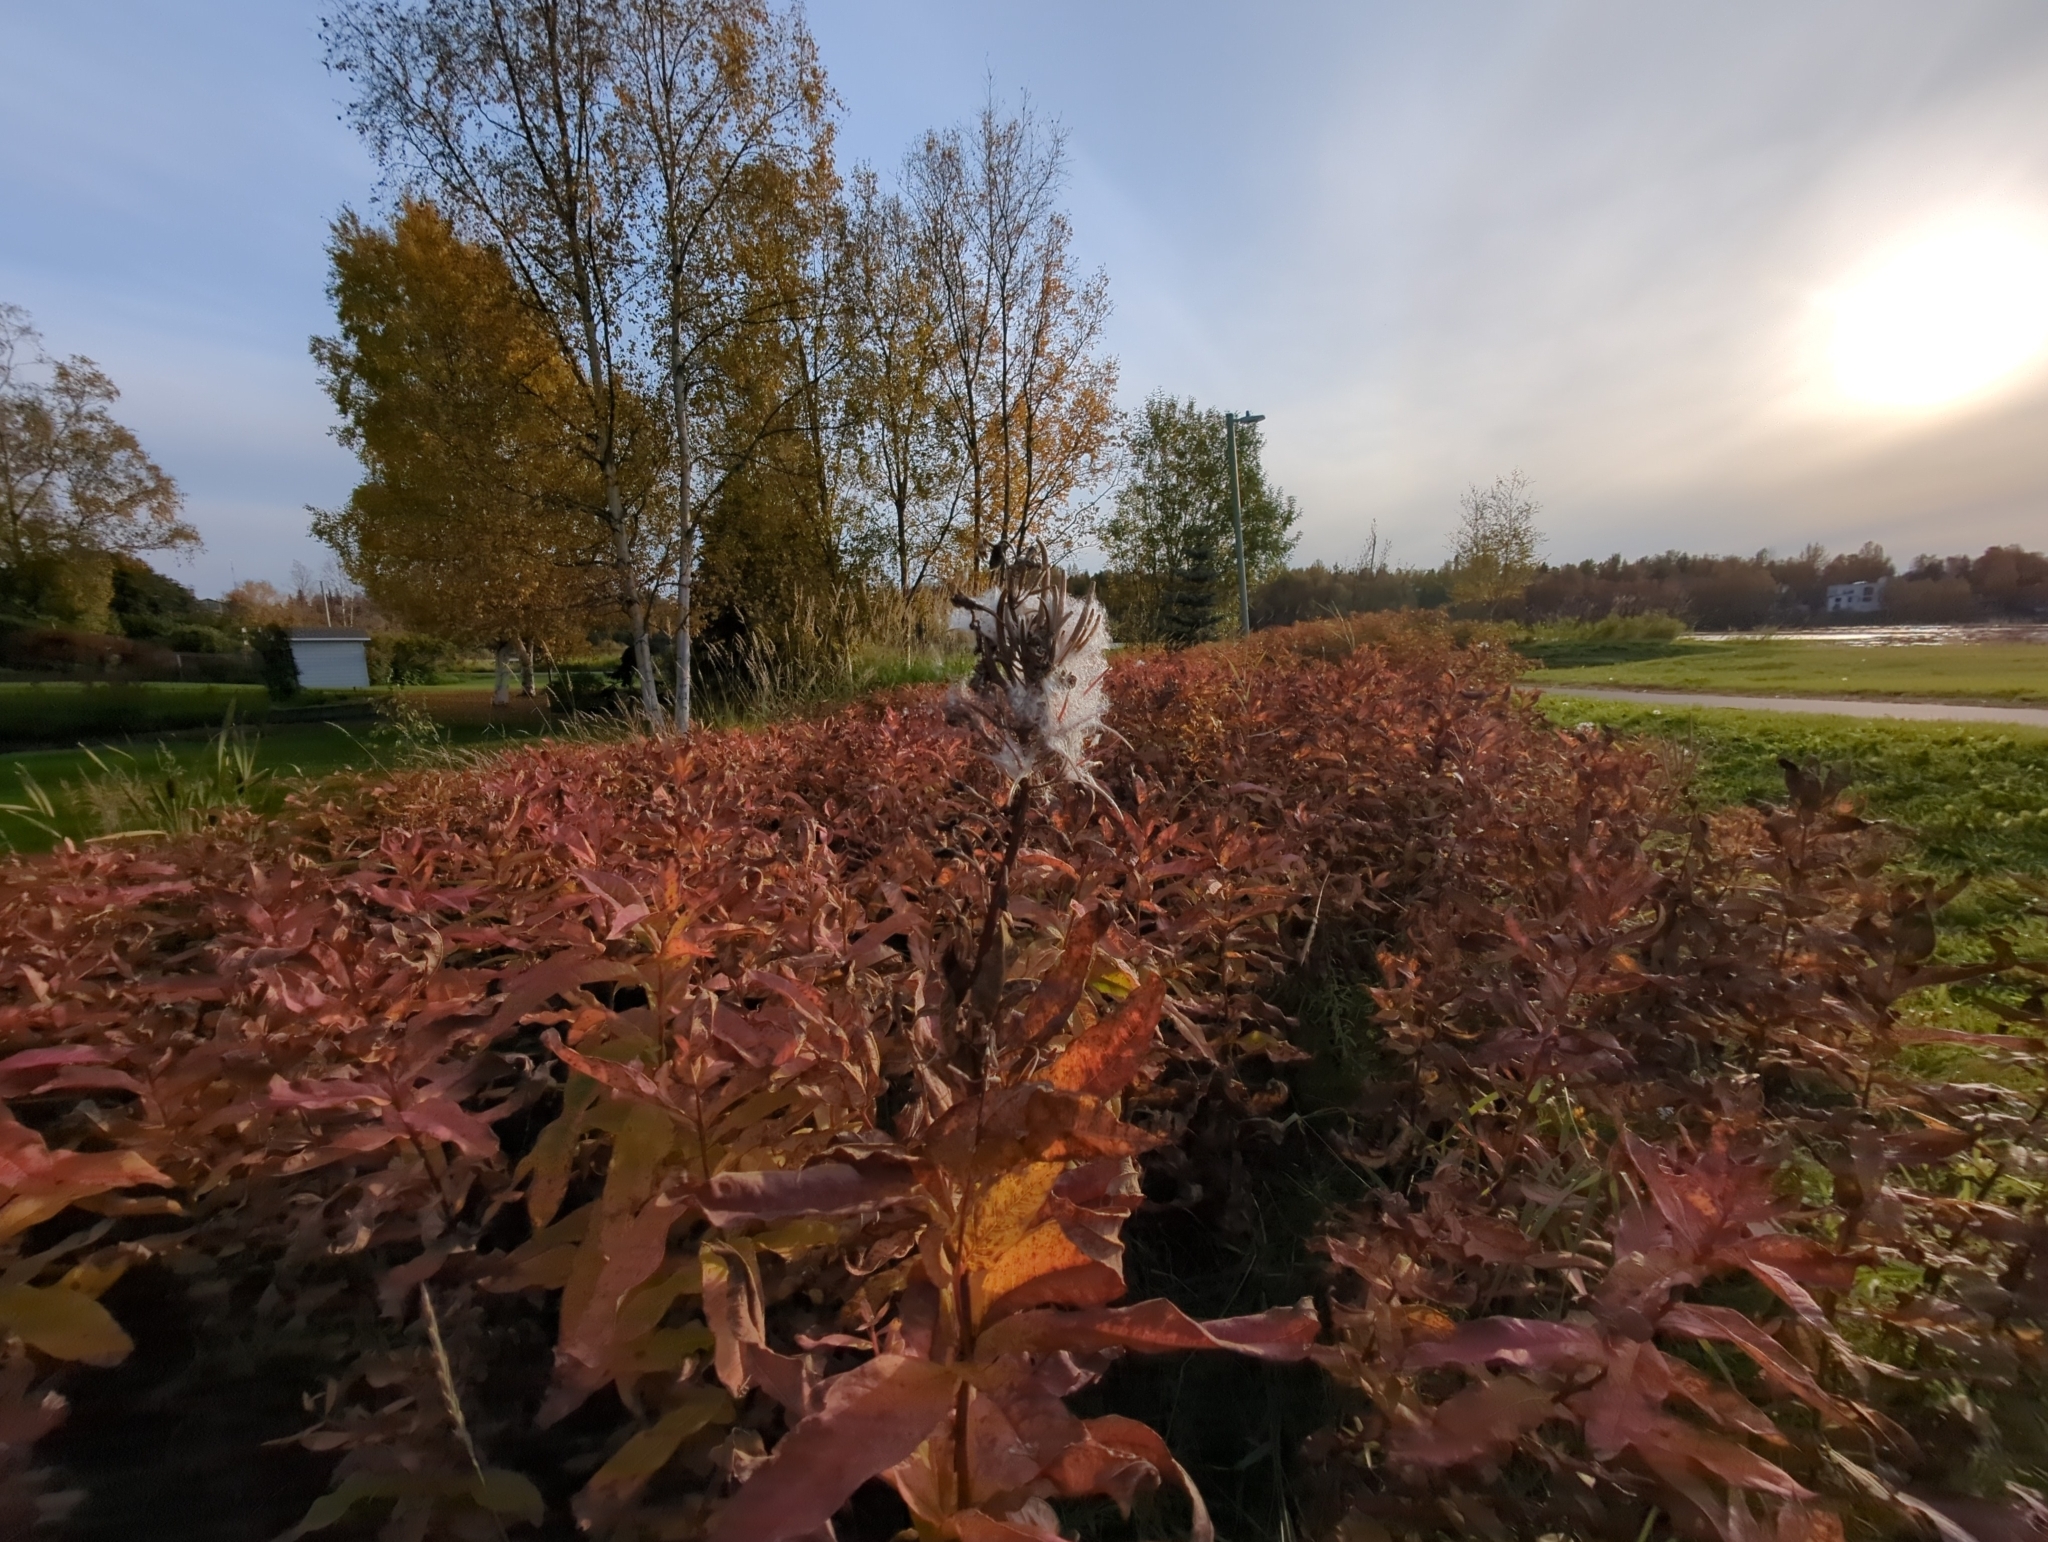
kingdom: Plantae
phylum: Tracheophyta
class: Magnoliopsida
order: Myrtales
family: Onagraceae
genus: Chamaenerion
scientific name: Chamaenerion angustifolium
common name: Fireweed
